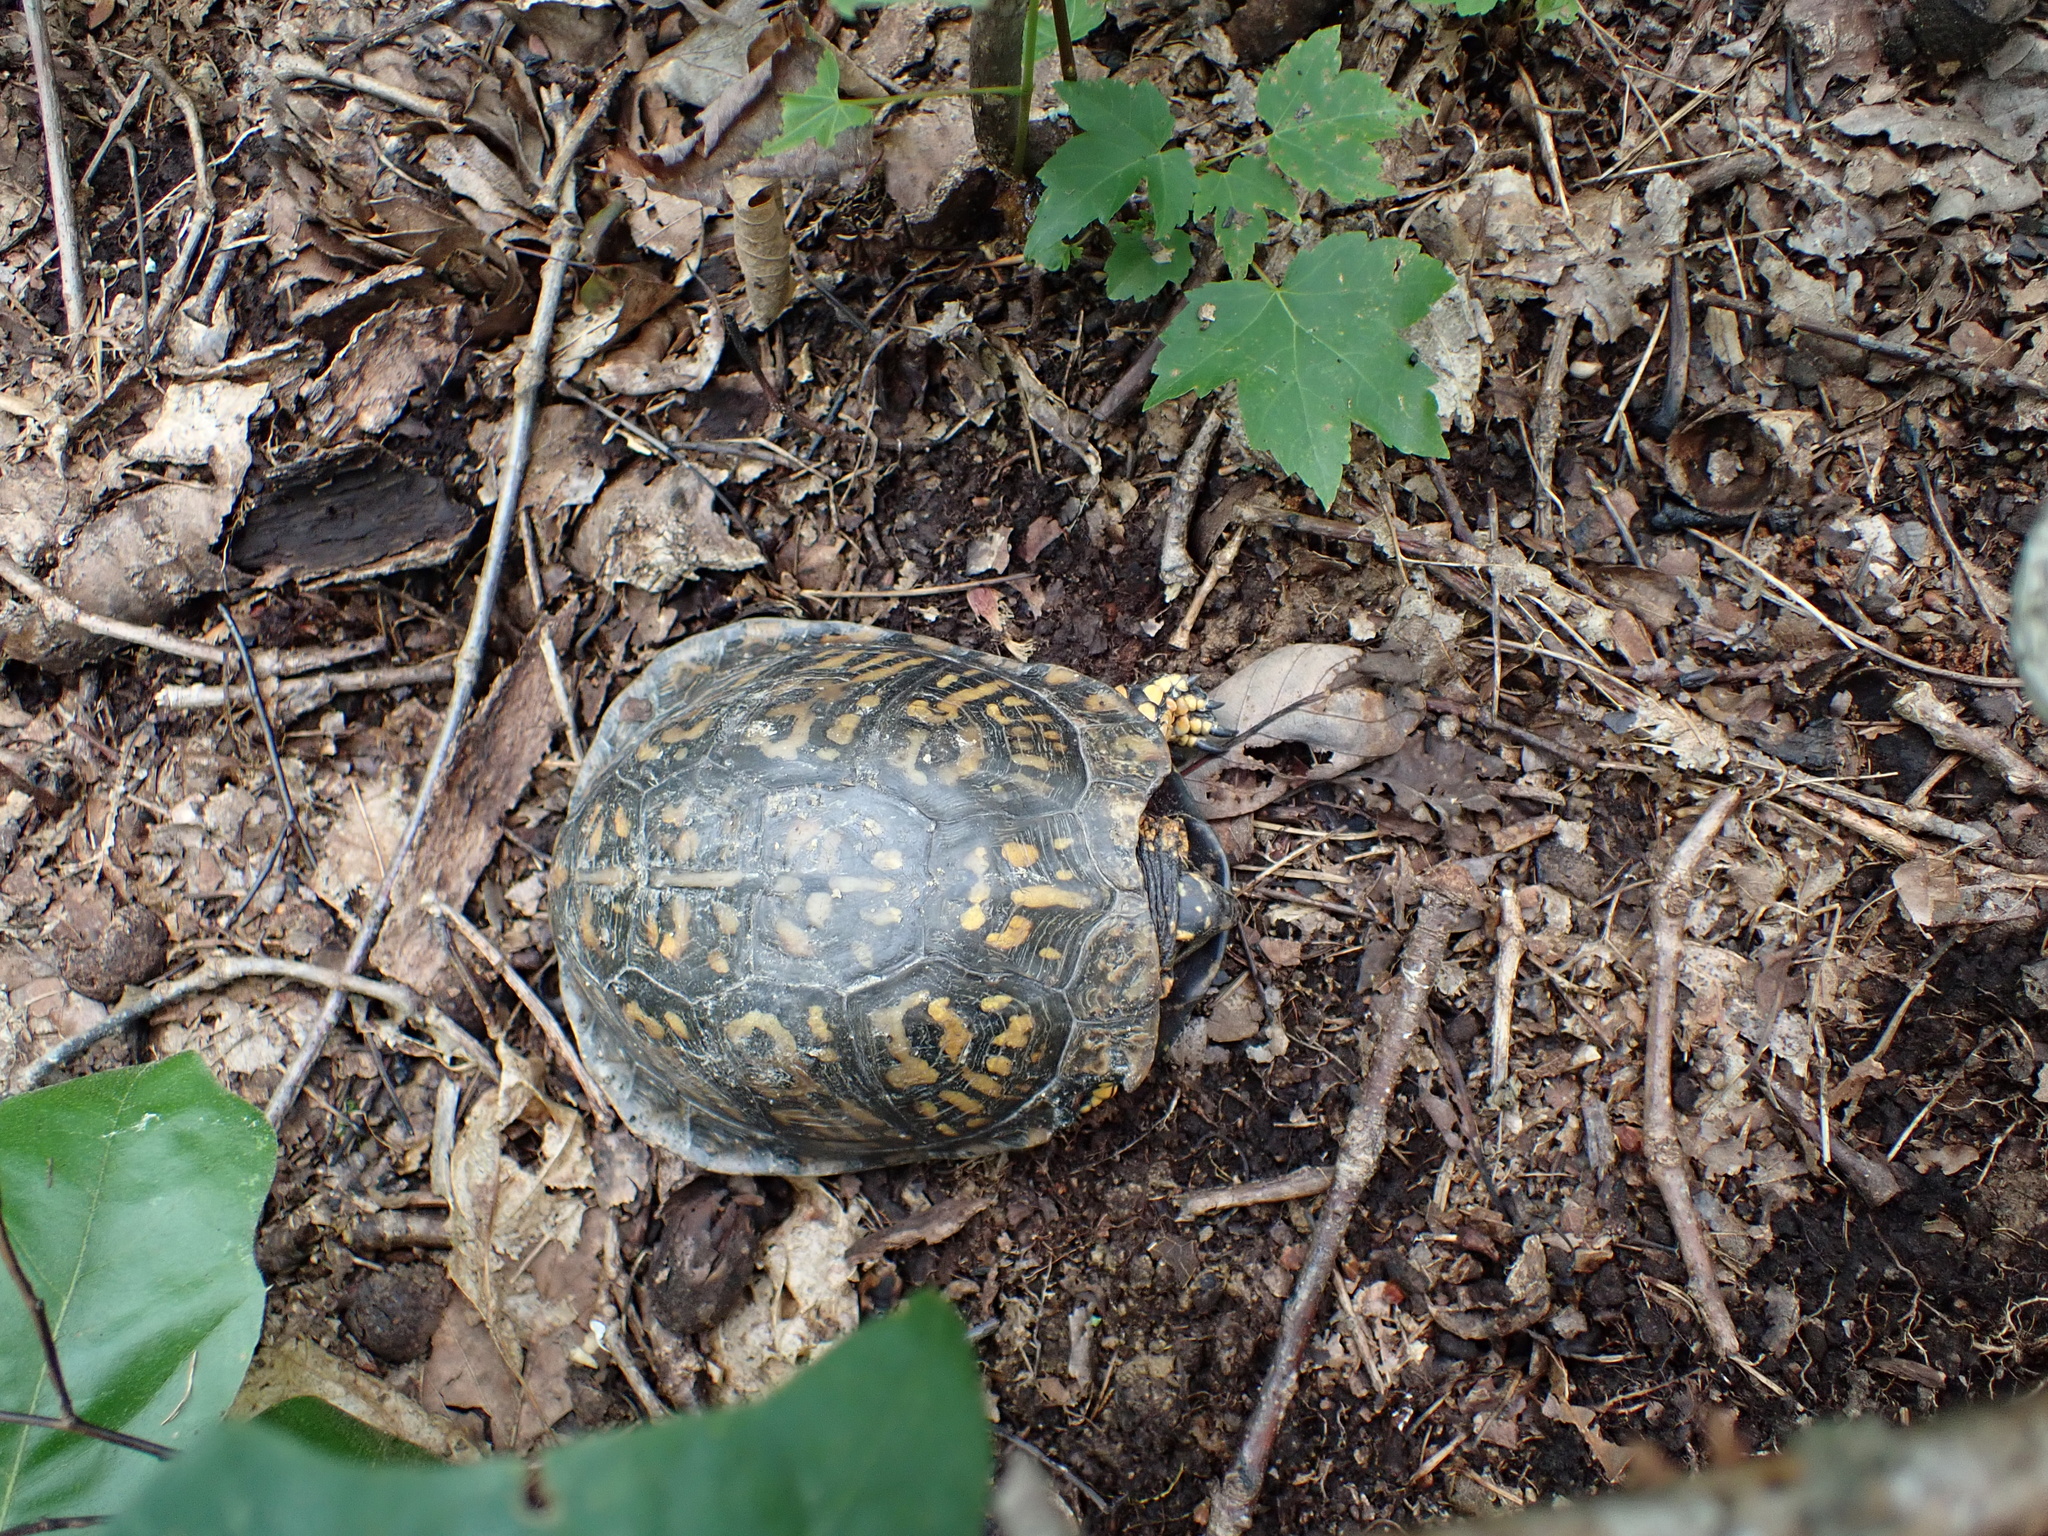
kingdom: Animalia
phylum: Chordata
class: Testudines
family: Emydidae
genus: Terrapene
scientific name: Terrapene carolina
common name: Common box turtle
